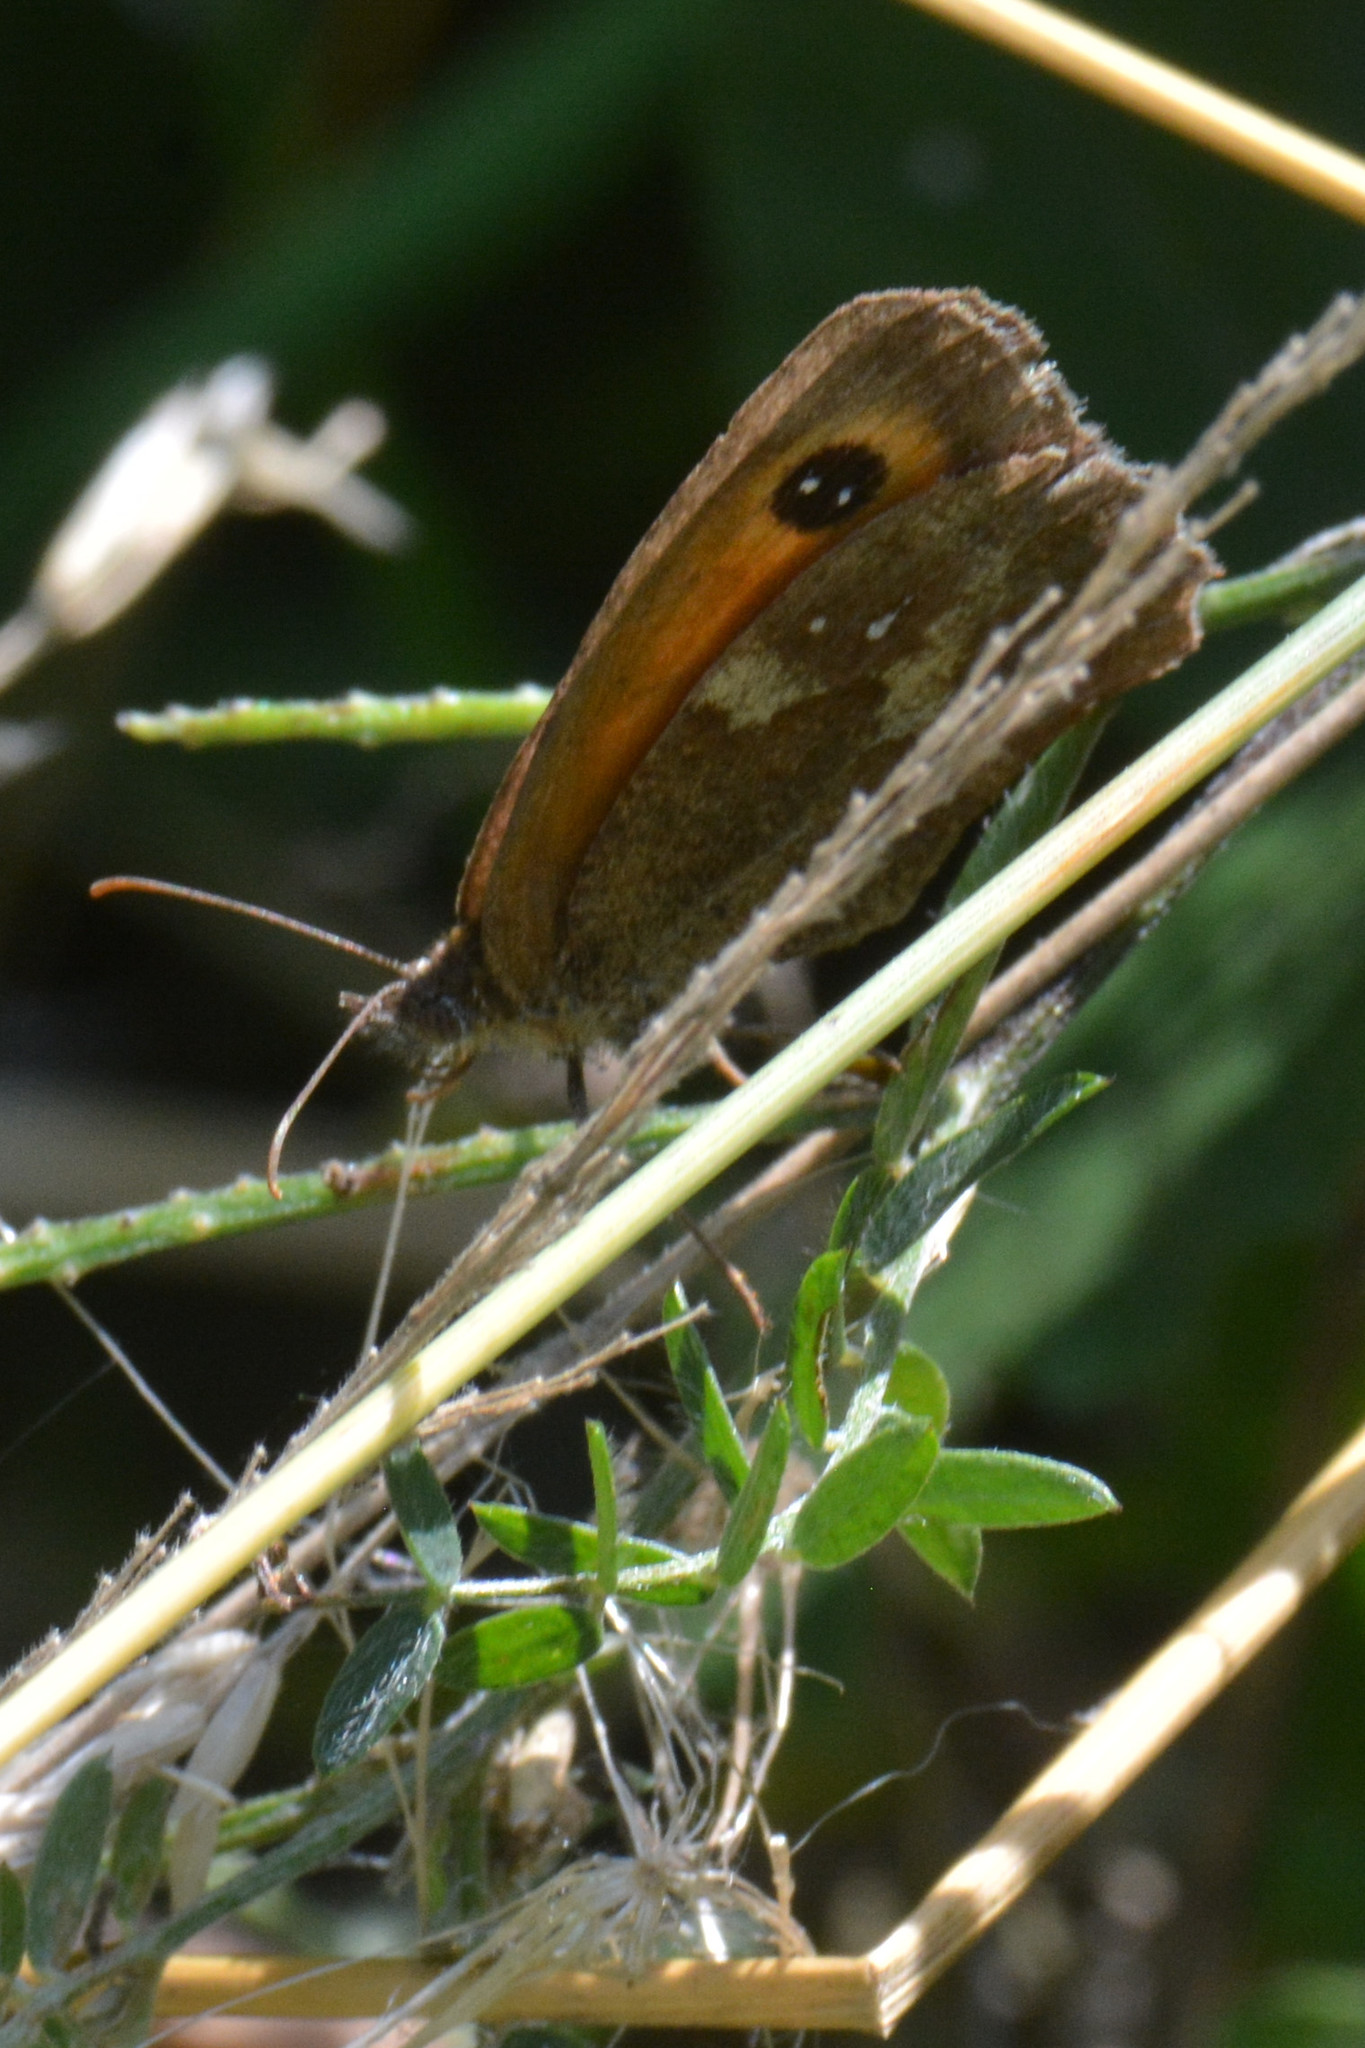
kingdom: Animalia
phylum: Arthropoda
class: Insecta
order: Lepidoptera
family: Nymphalidae
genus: Pyronia
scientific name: Pyronia tithonus
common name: Gatekeeper
